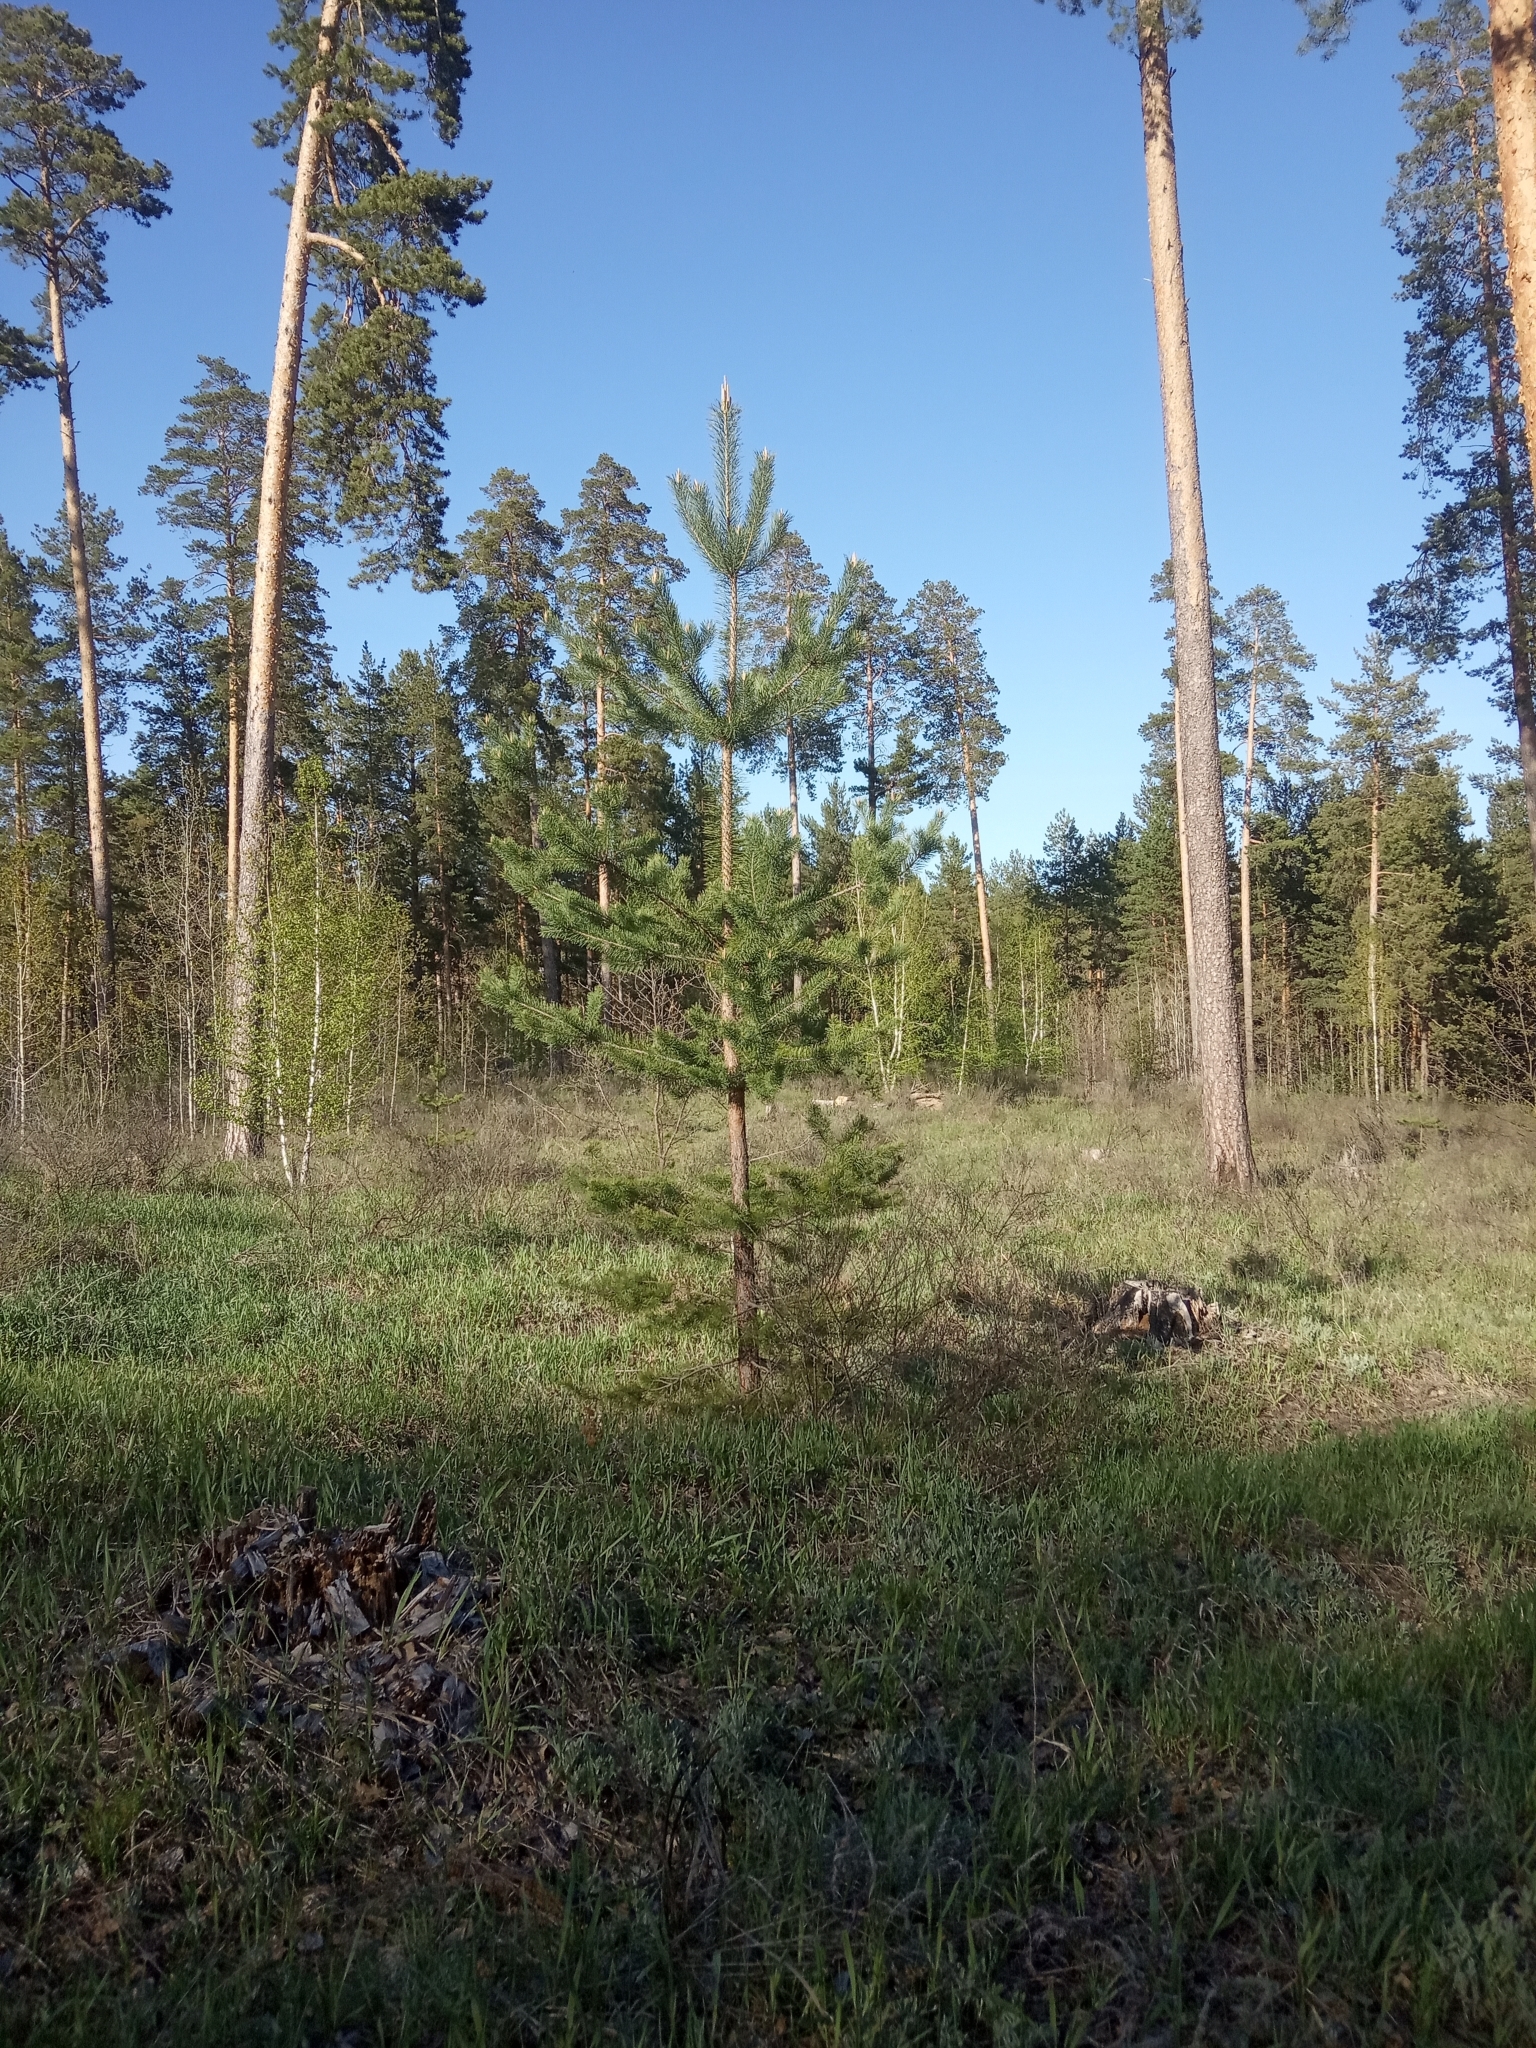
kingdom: Plantae
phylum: Tracheophyta
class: Pinopsida
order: Pinales
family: Pinaceae
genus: Pinus
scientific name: Pinus sylvestris
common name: Scots pine
